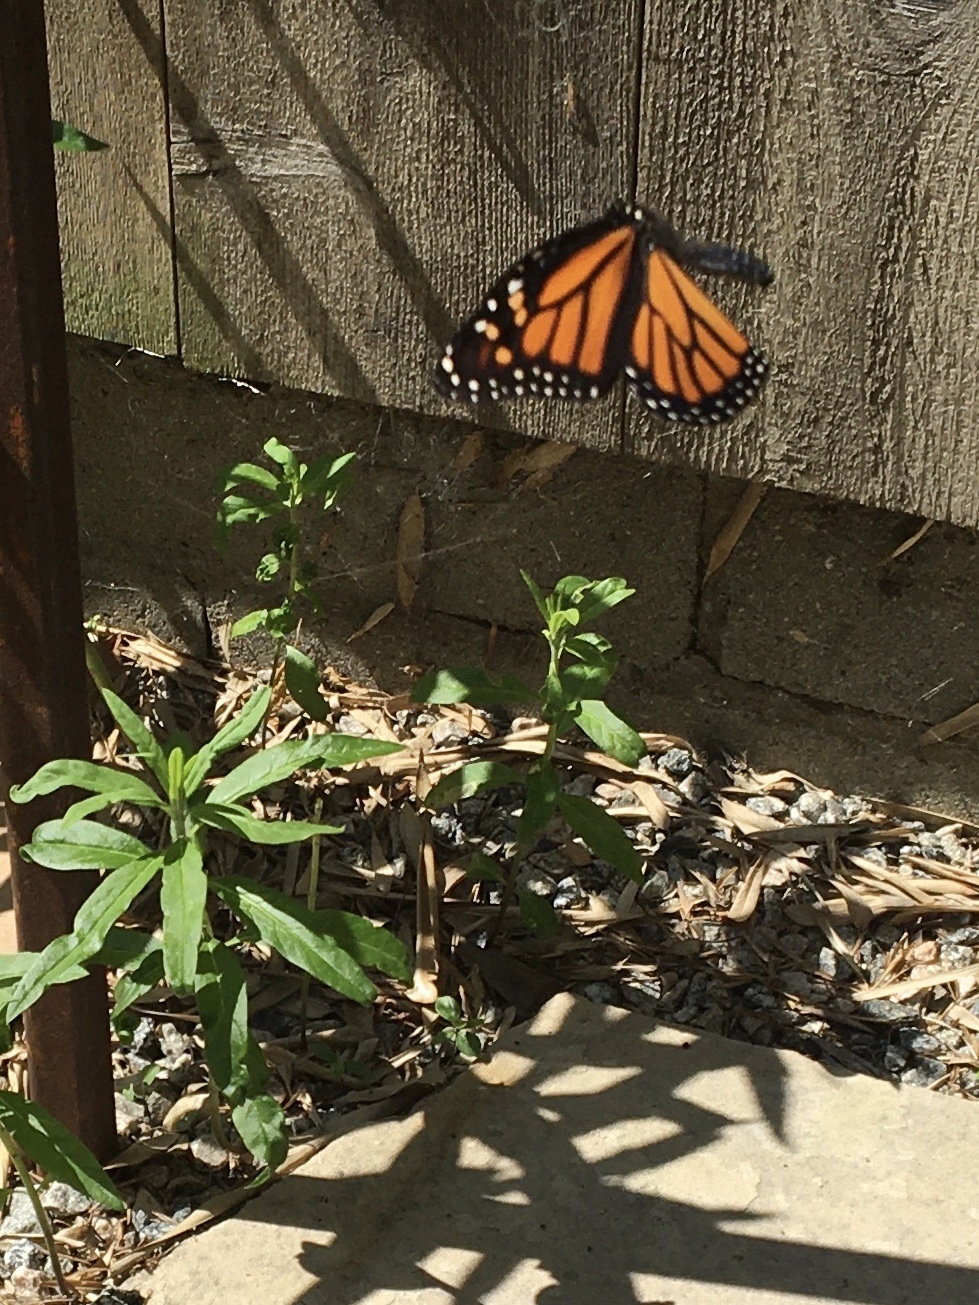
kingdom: Animalia
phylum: Arthropoda
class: Insecta
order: Lepidoptera
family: Nymphalidae
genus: Danaus
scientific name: Danaus plexippus
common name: Monarch
